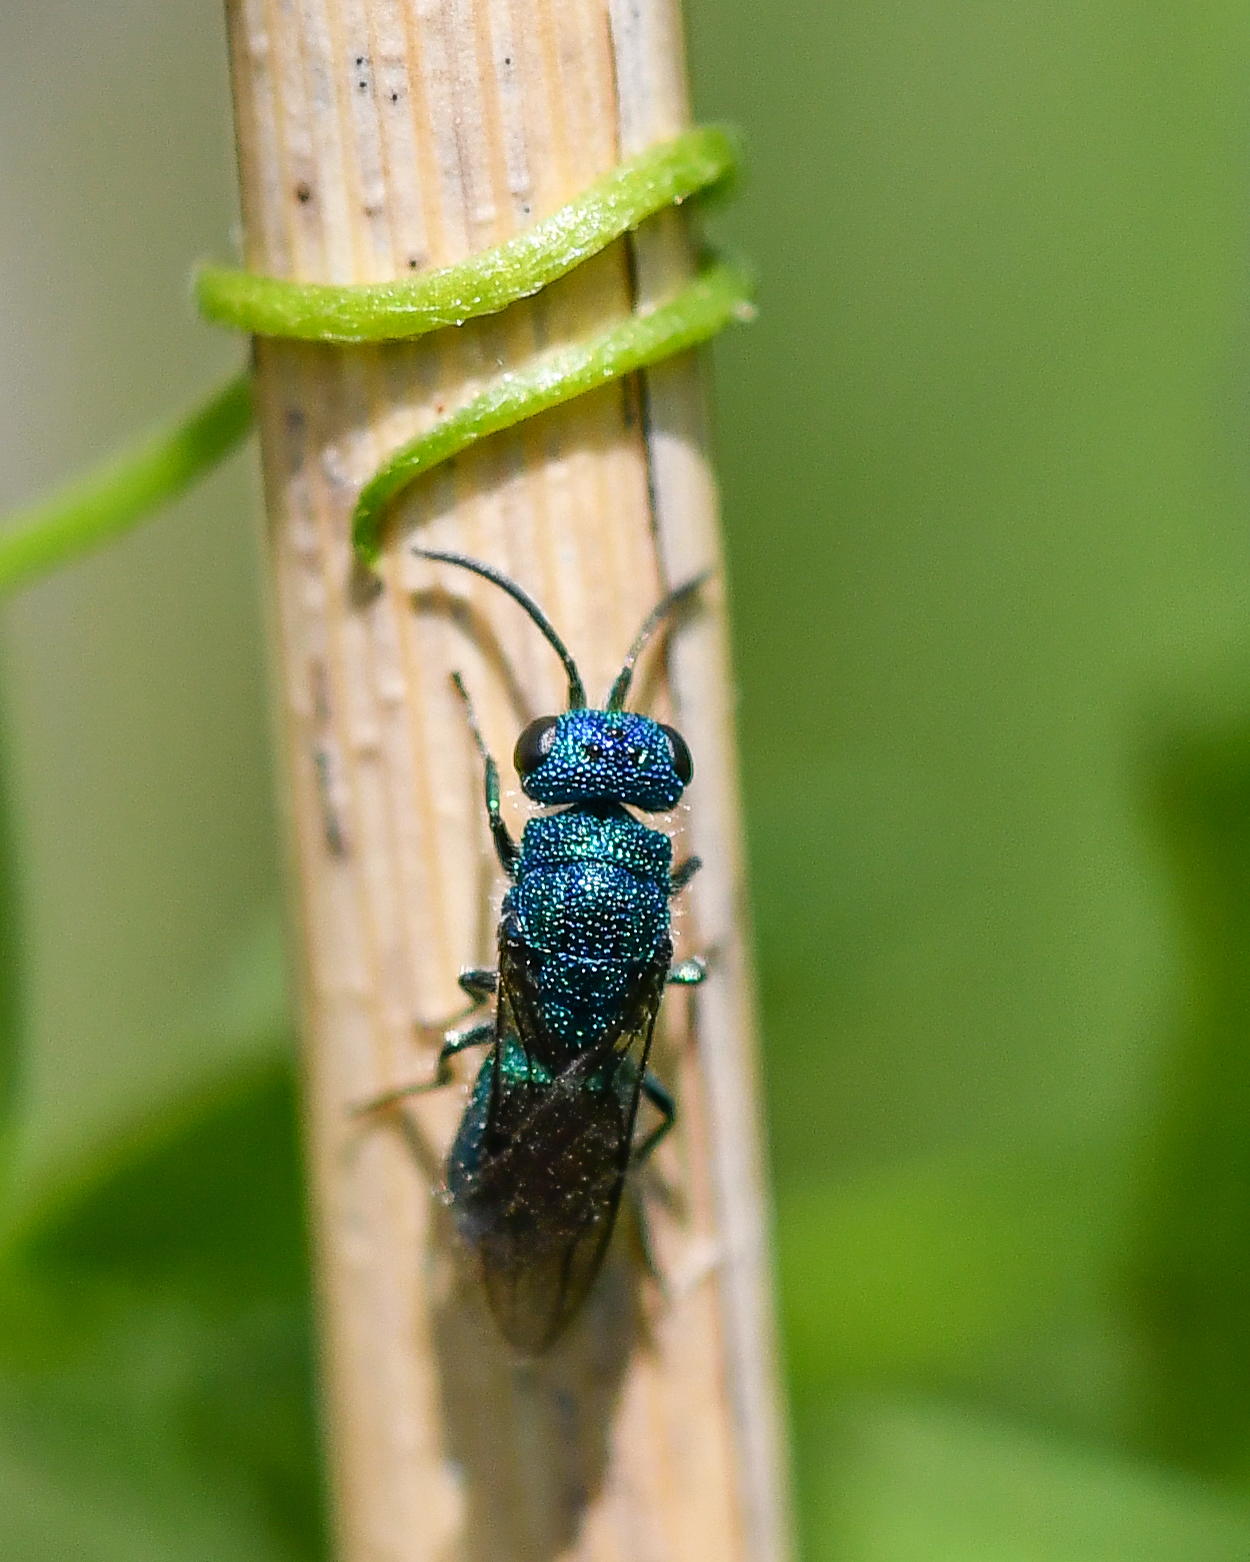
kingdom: Animalia
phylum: Arthropoda
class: Insecta
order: Hymenoptera
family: Pompilidae
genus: Pepsis
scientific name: Pepsis cyanea
